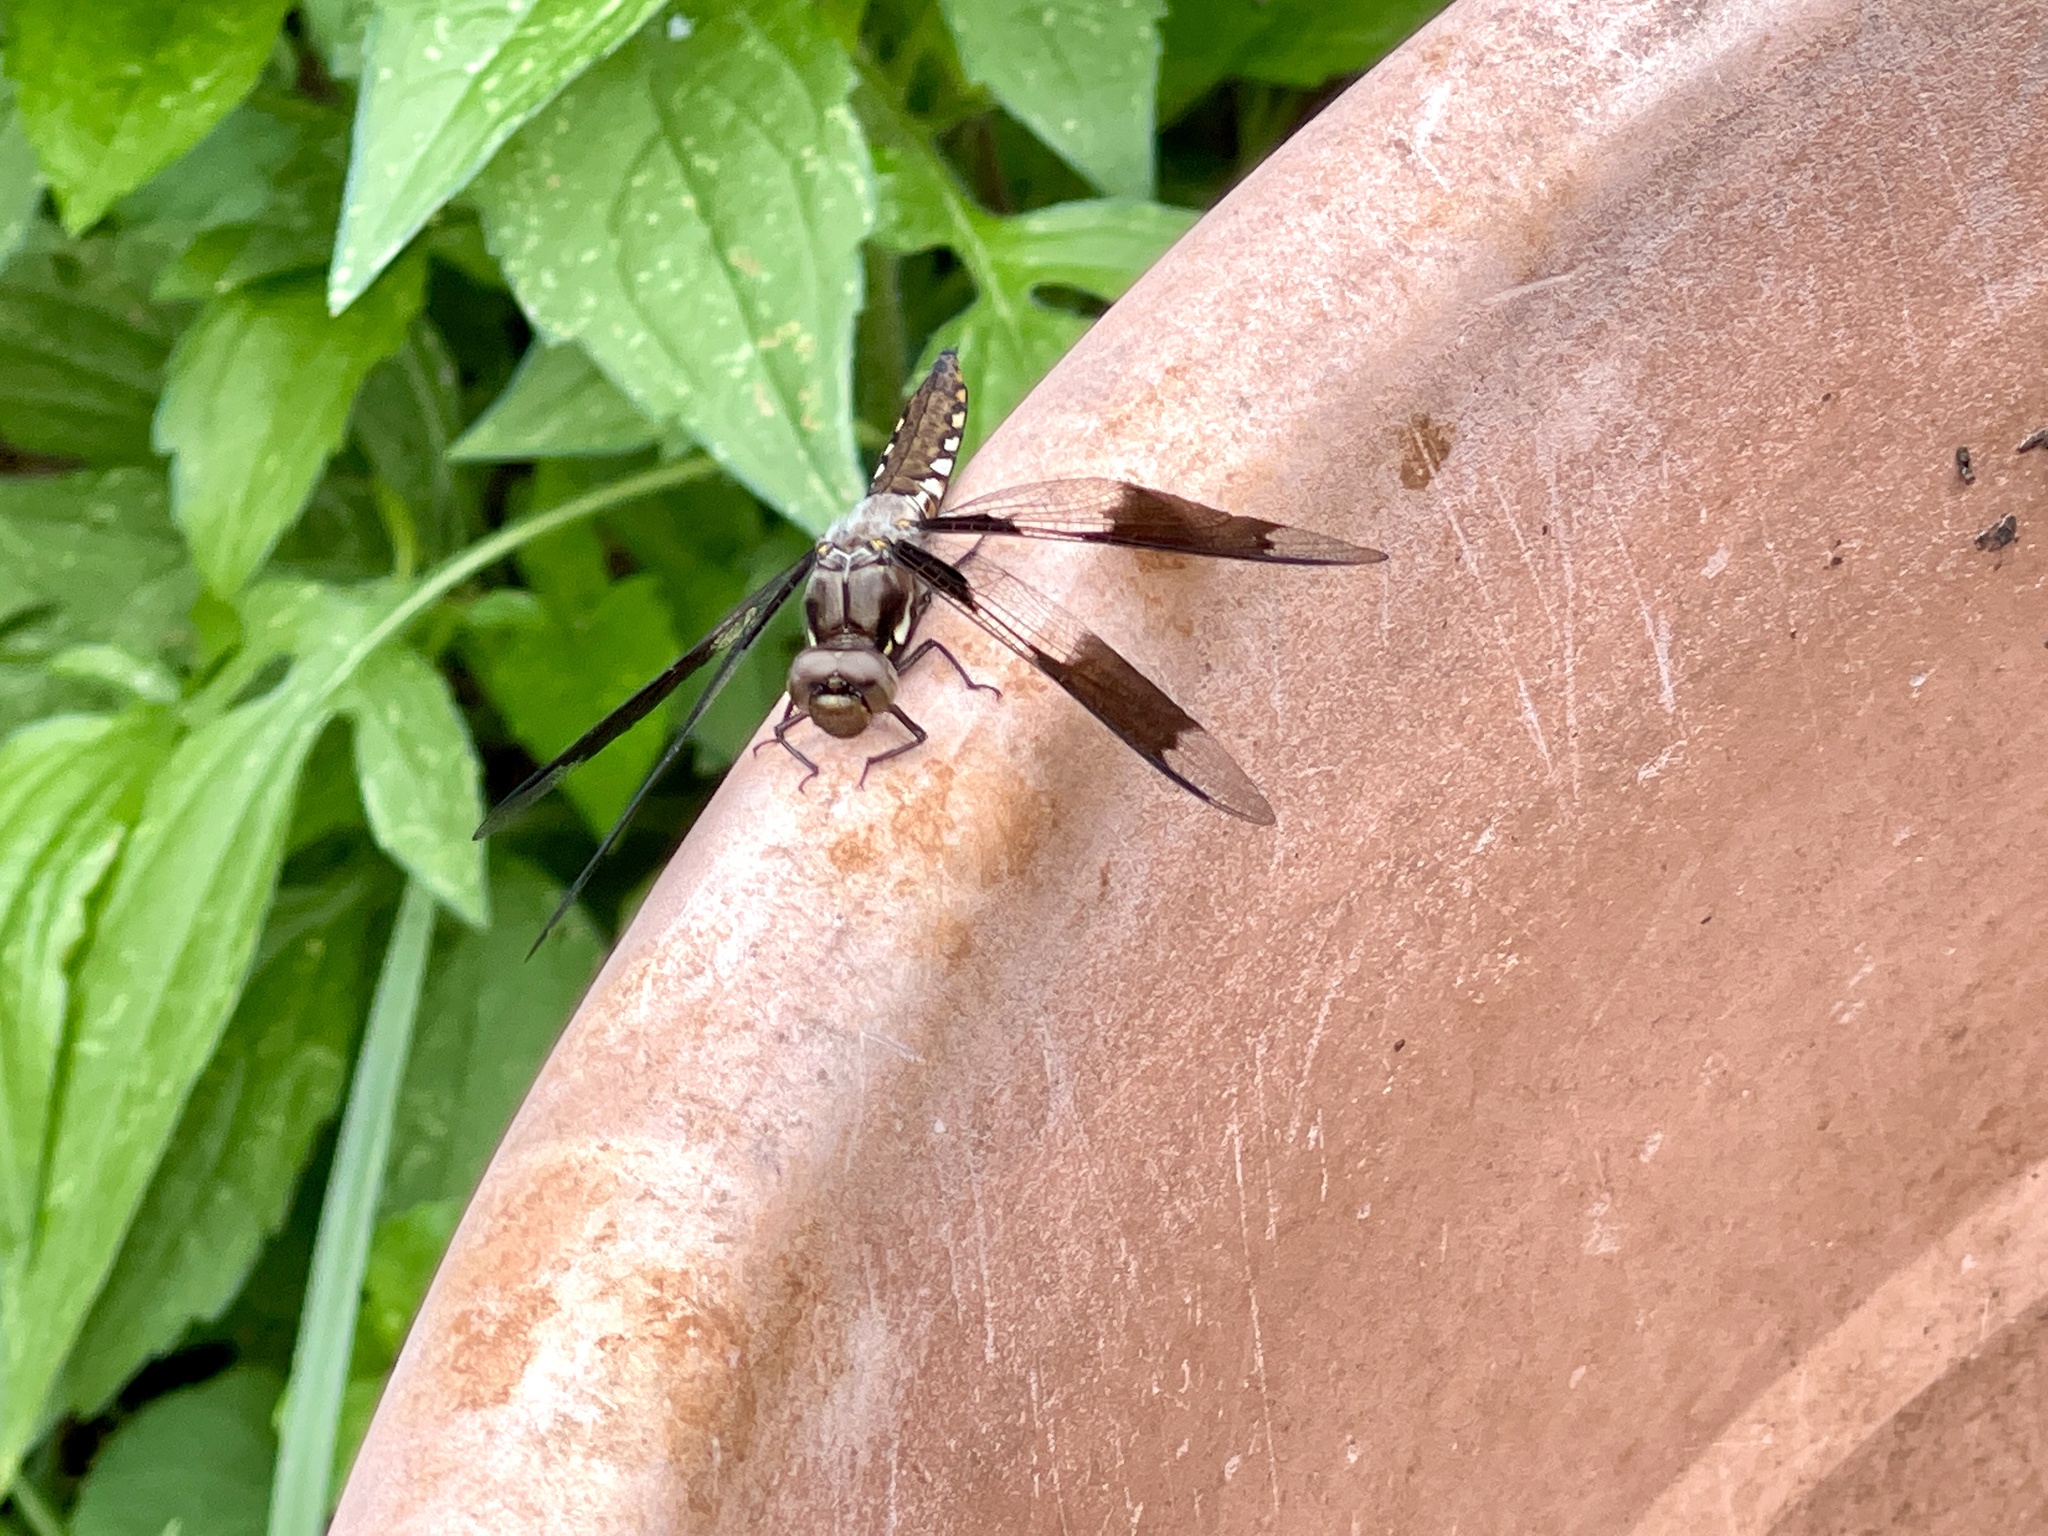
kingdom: Animalia
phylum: Arthropoda
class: Insecta
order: Odonata
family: Libellulidae
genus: Plathemis
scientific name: Plathemis lydia
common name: Common whitetail
